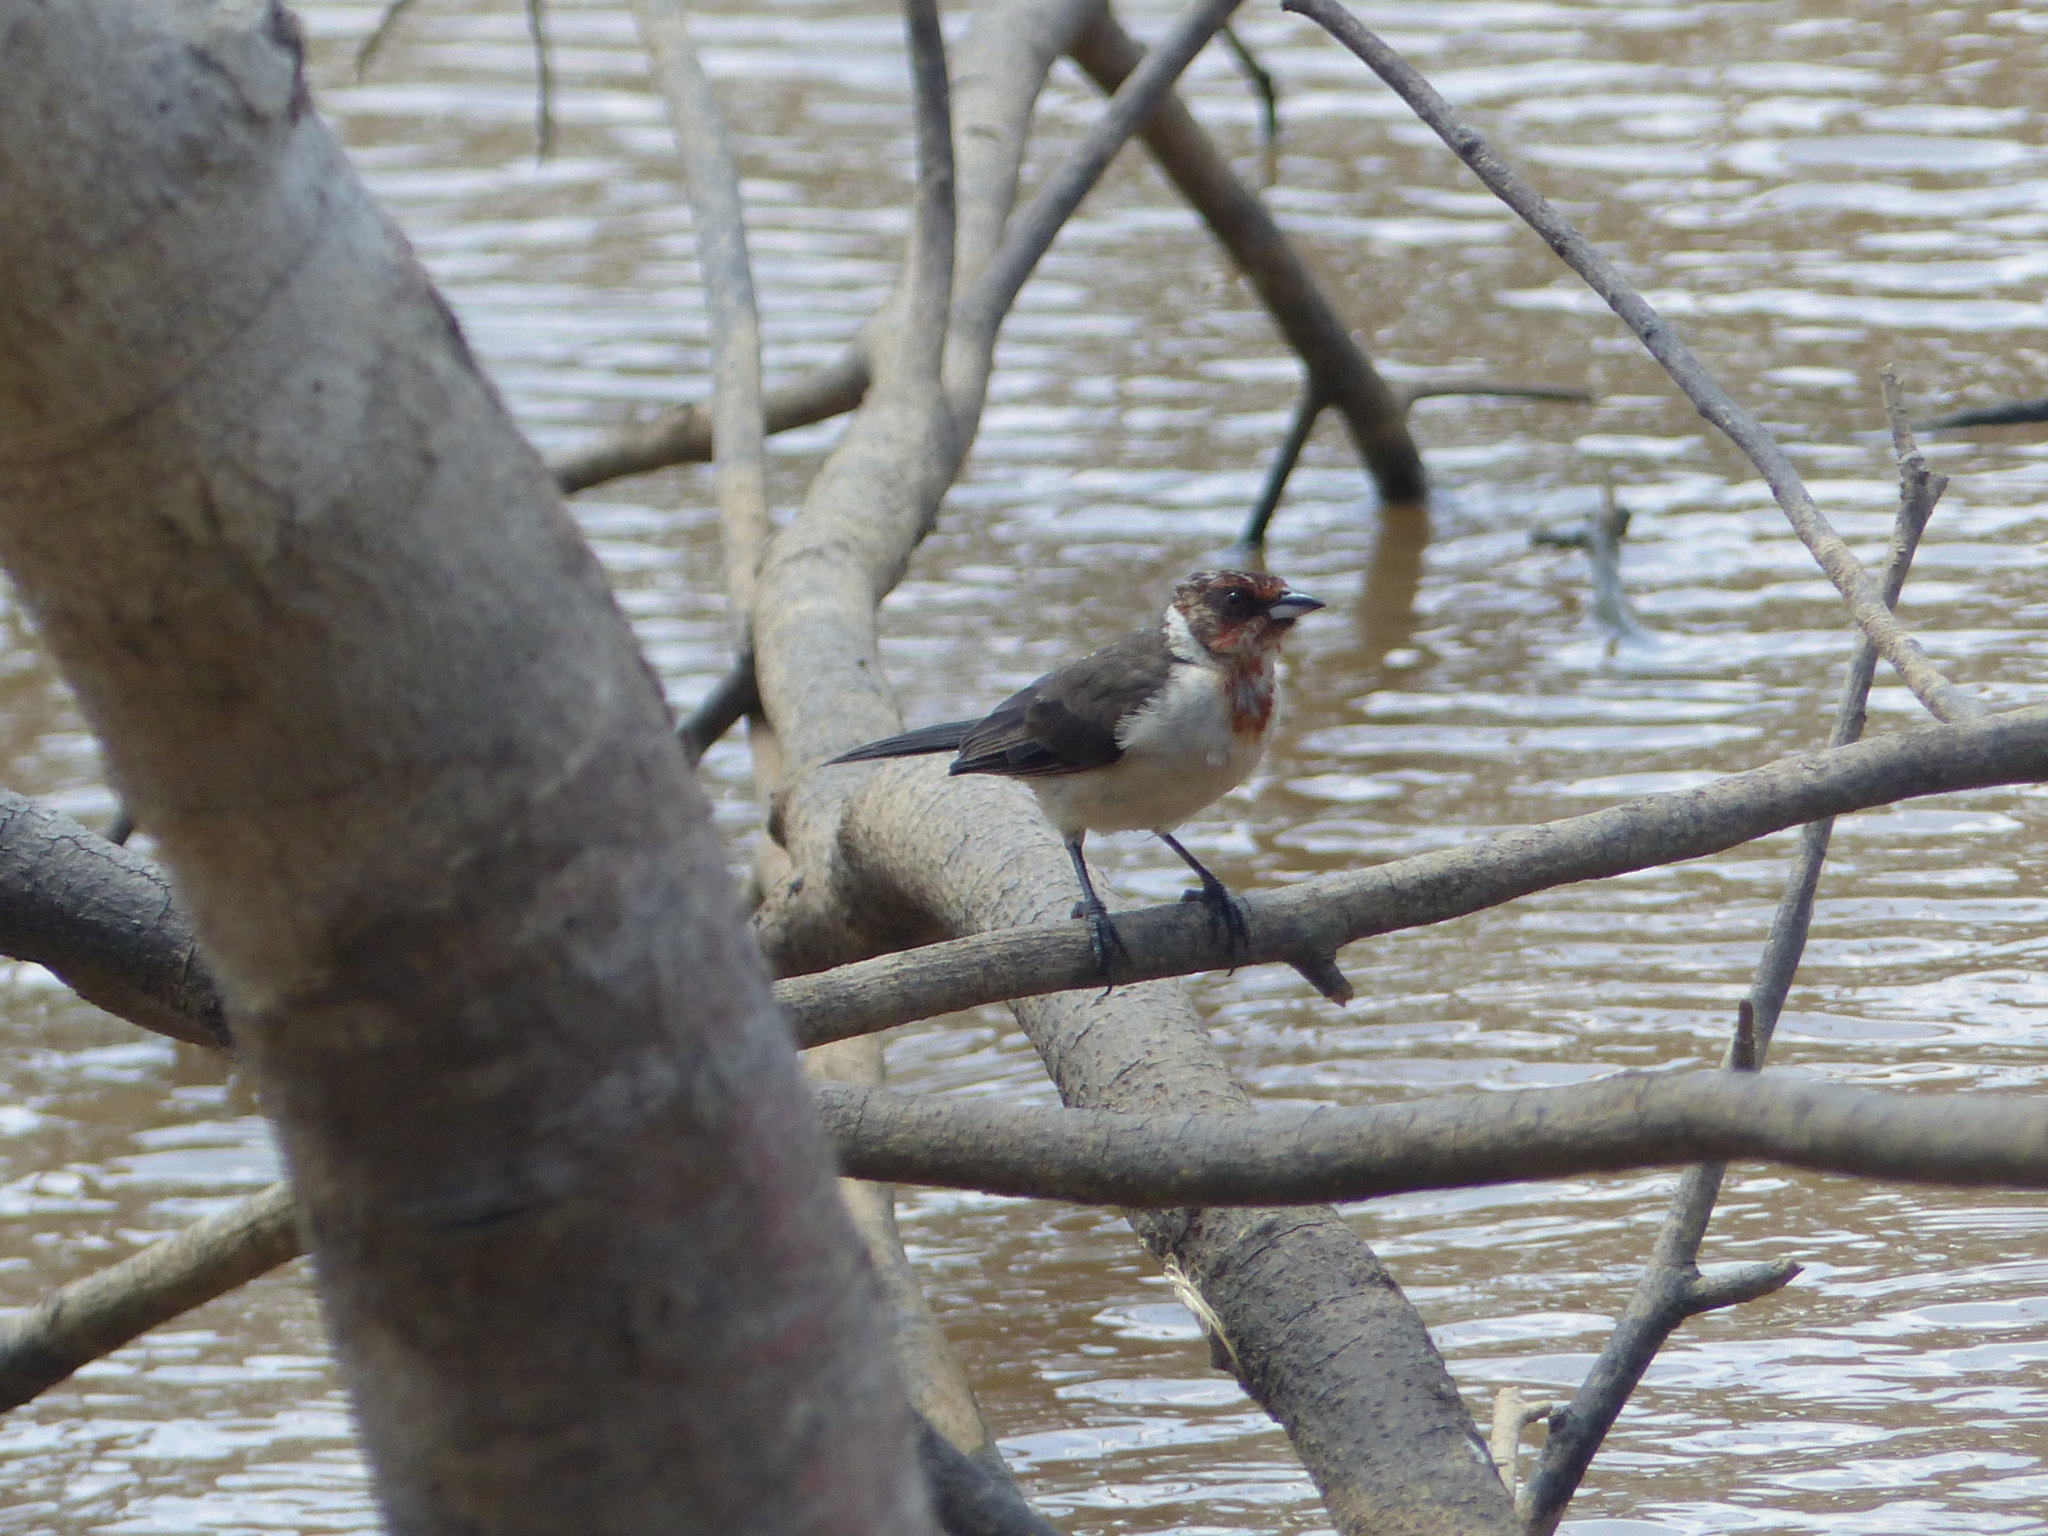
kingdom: Animalia
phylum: Chordata
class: Aves
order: Passeriformes
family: Thraupidae
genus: Paroaria
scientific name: Paroaria nigrogenis
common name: Masked cardinal
